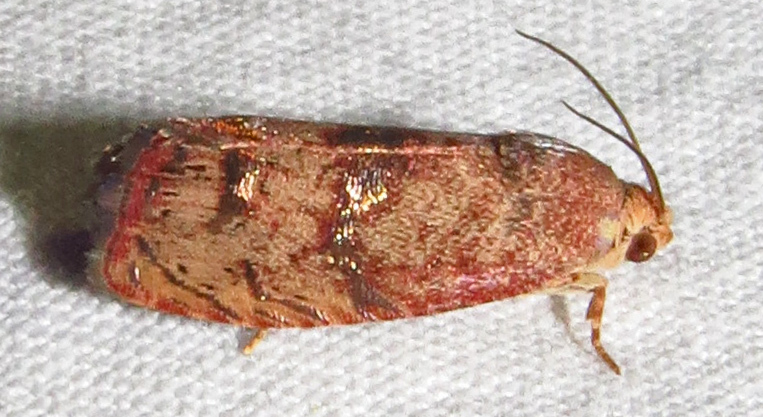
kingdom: Animalia
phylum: Arthropoda
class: Insecta
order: Lepidoptera
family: Tortricidae
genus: Cydia
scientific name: Cydia latiferreana
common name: Filbertworm moth
